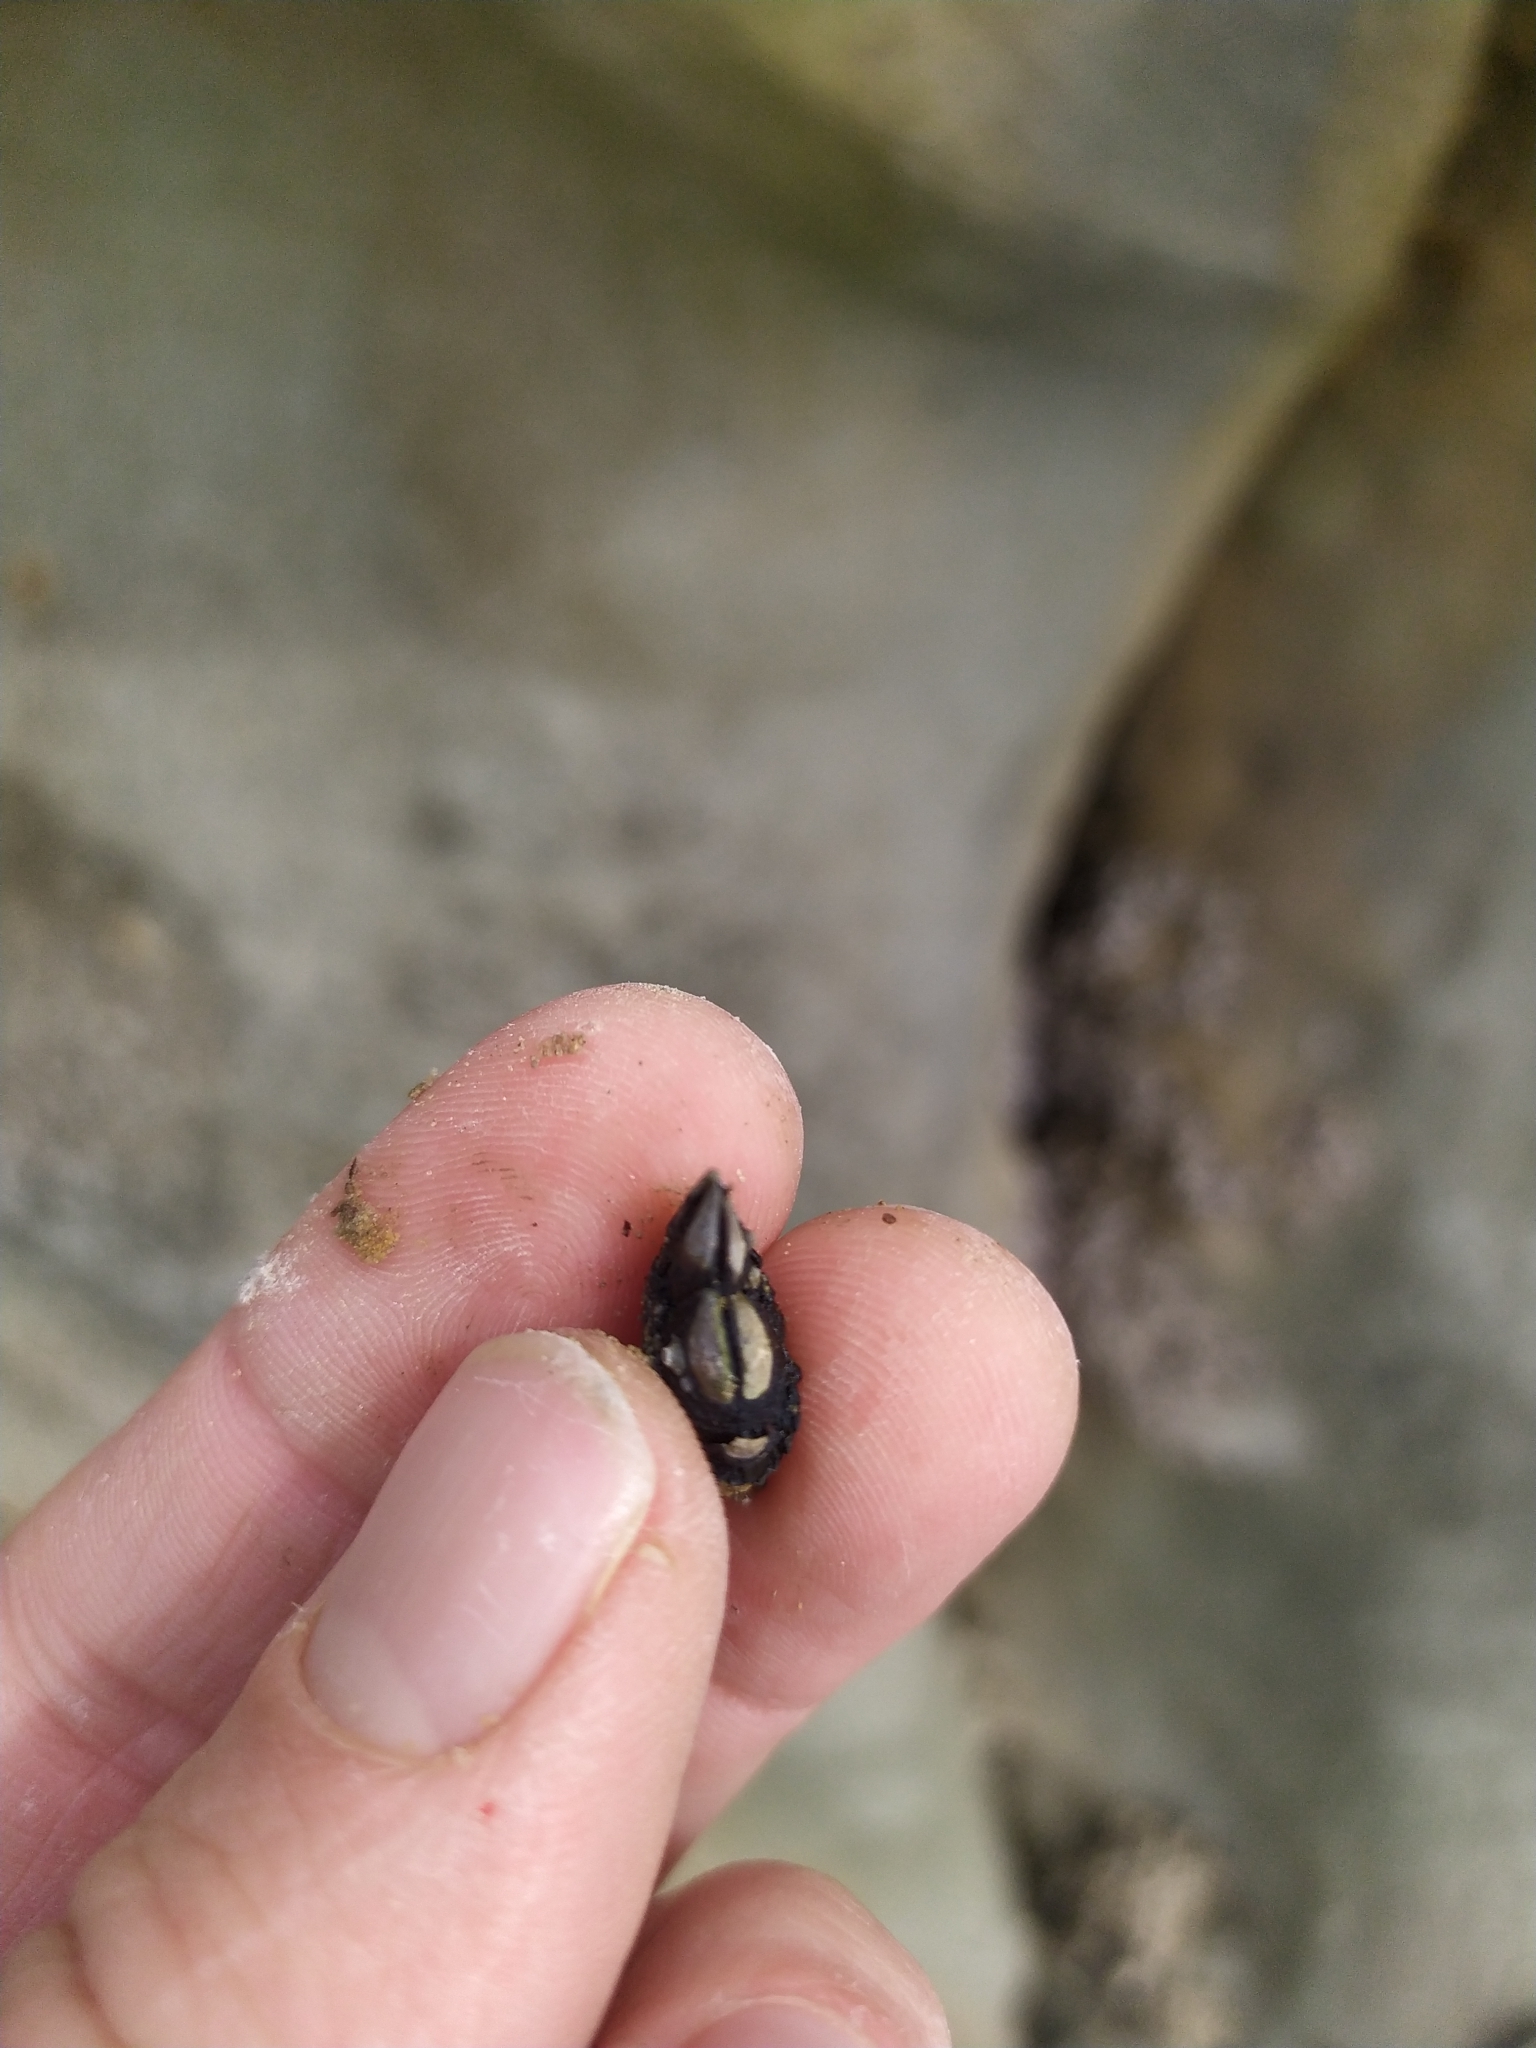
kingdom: Animalia
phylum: Arthropoda
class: Maxillopoda
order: Pedunculata
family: Calanticidae
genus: Calantica
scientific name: Calantica spinosa
